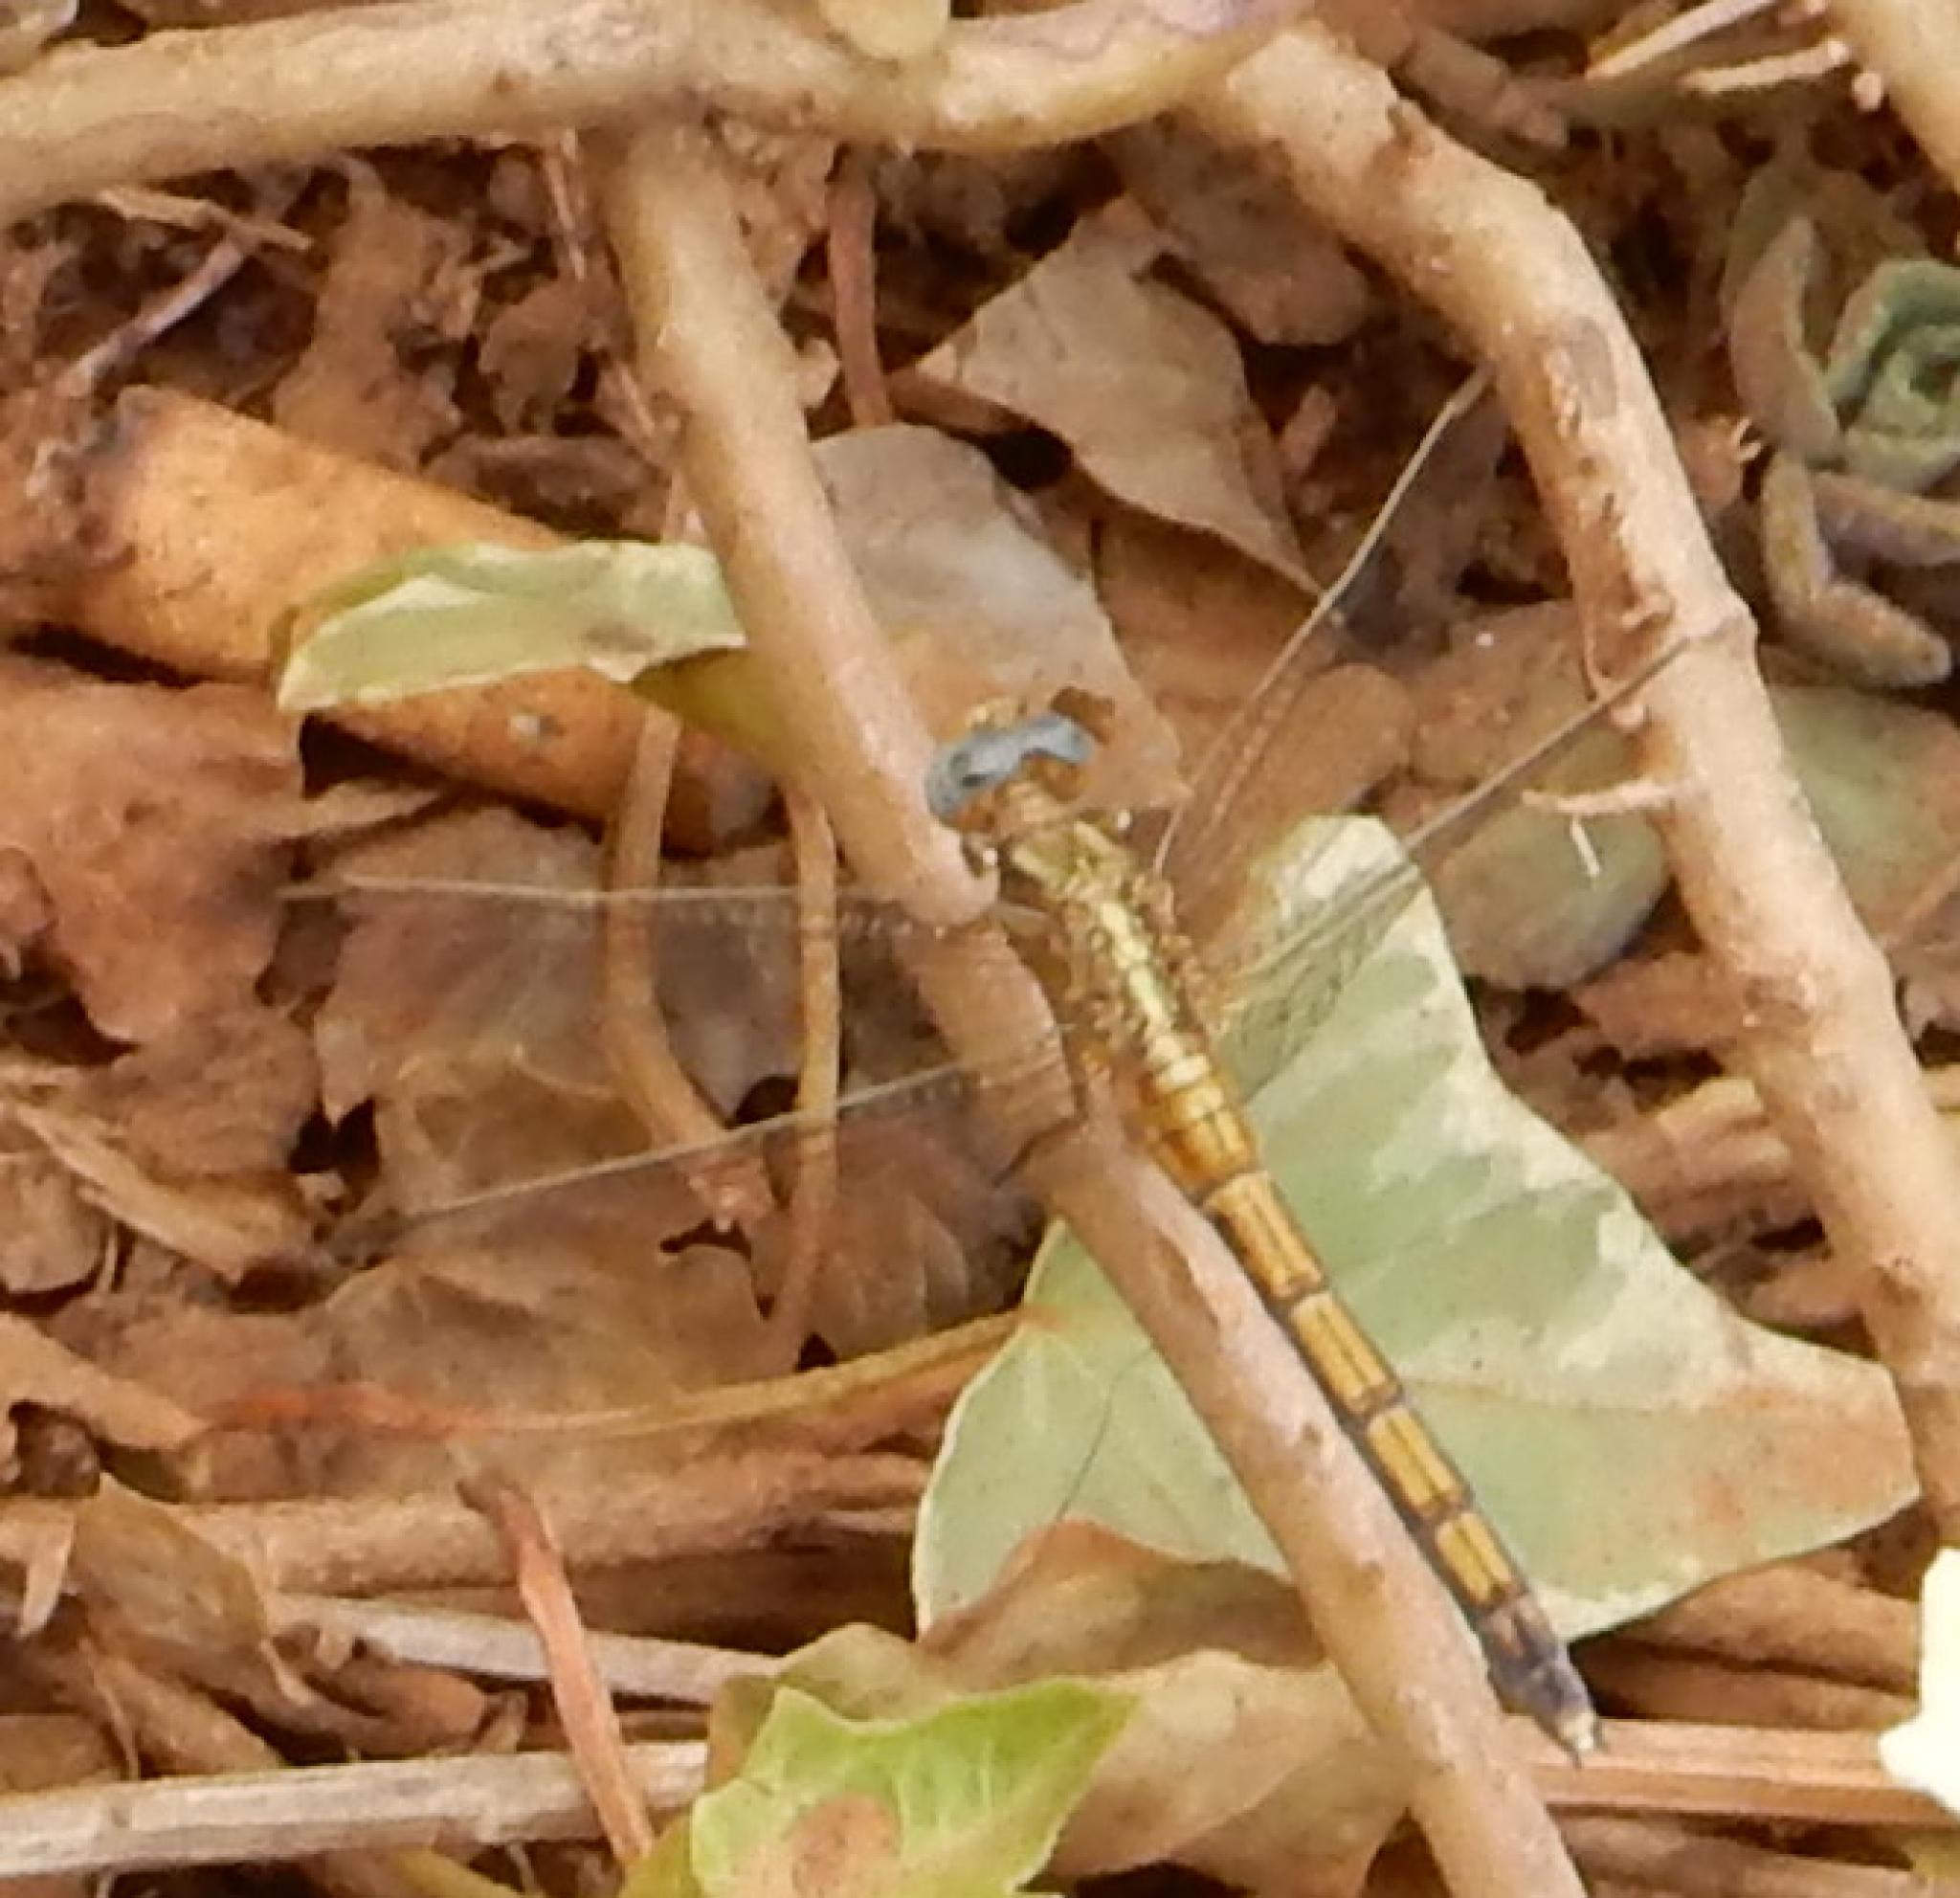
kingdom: Animalia
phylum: Arthropoda
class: Insecta
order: Odonata
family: Libellulidae
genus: Orthetrum
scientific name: Orthetrum chrysostigma
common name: Epaulet skimmer
